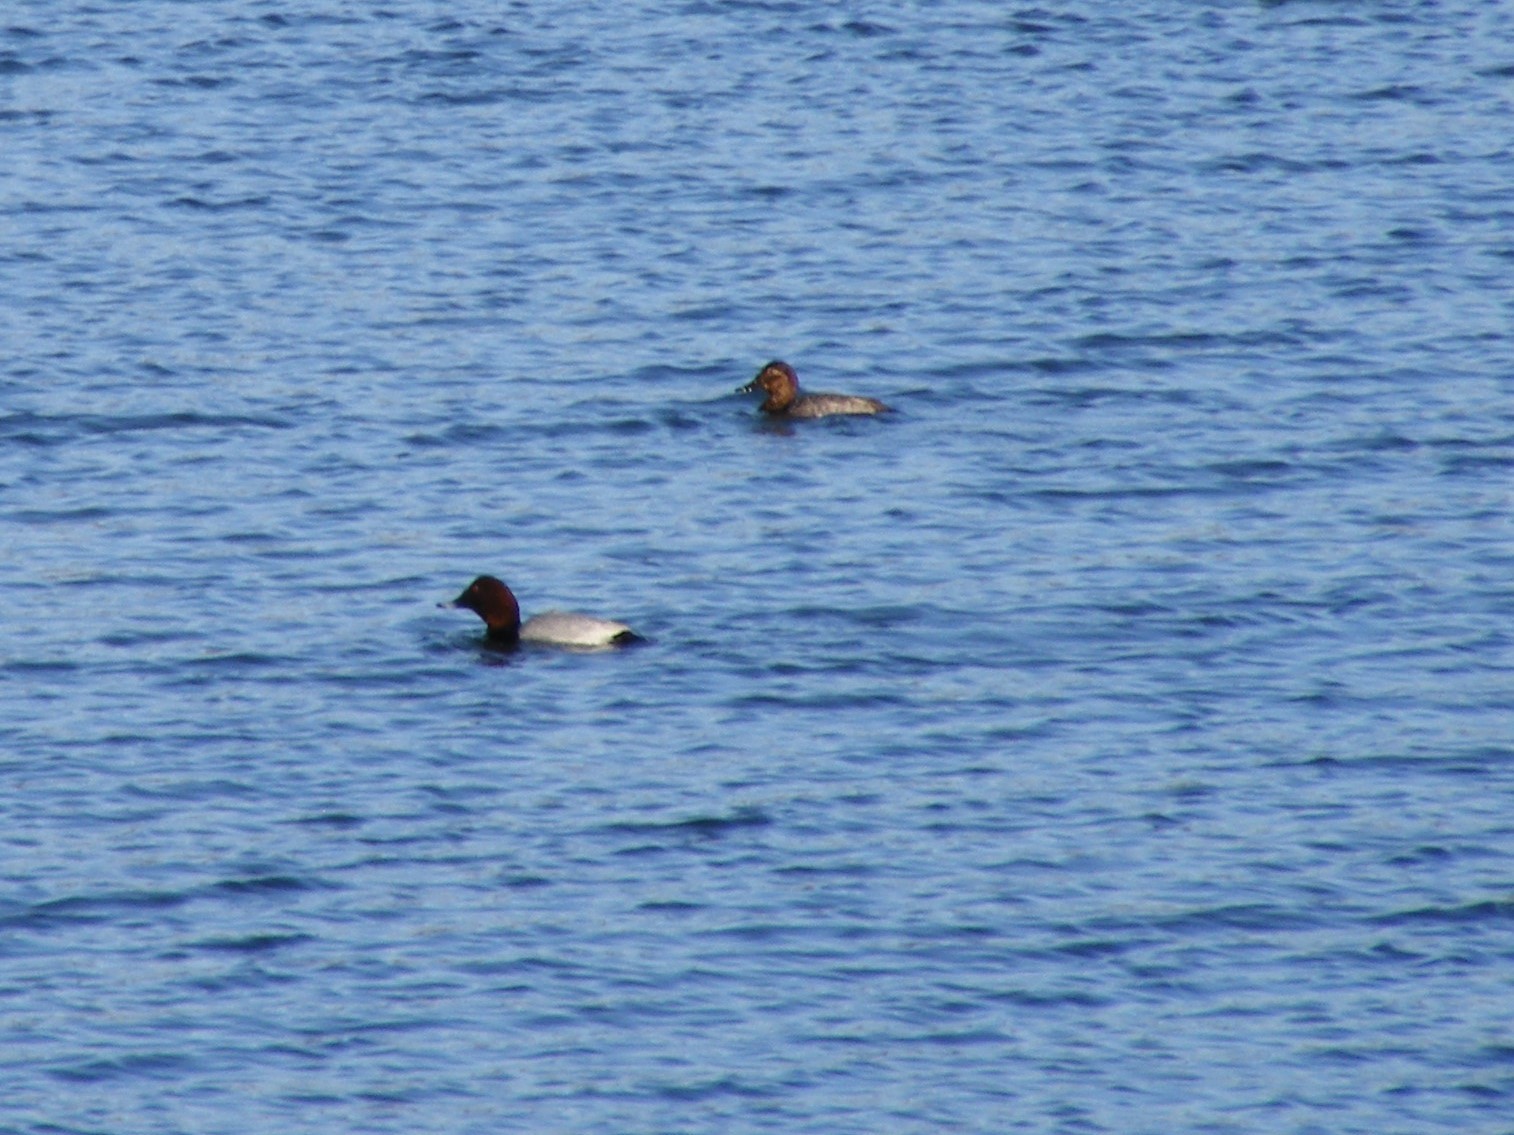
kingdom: Animalia
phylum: Chordata
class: Aves
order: Anseriformes
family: Anatidae
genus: Aythya
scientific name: Aythya ferina
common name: Common pochard
